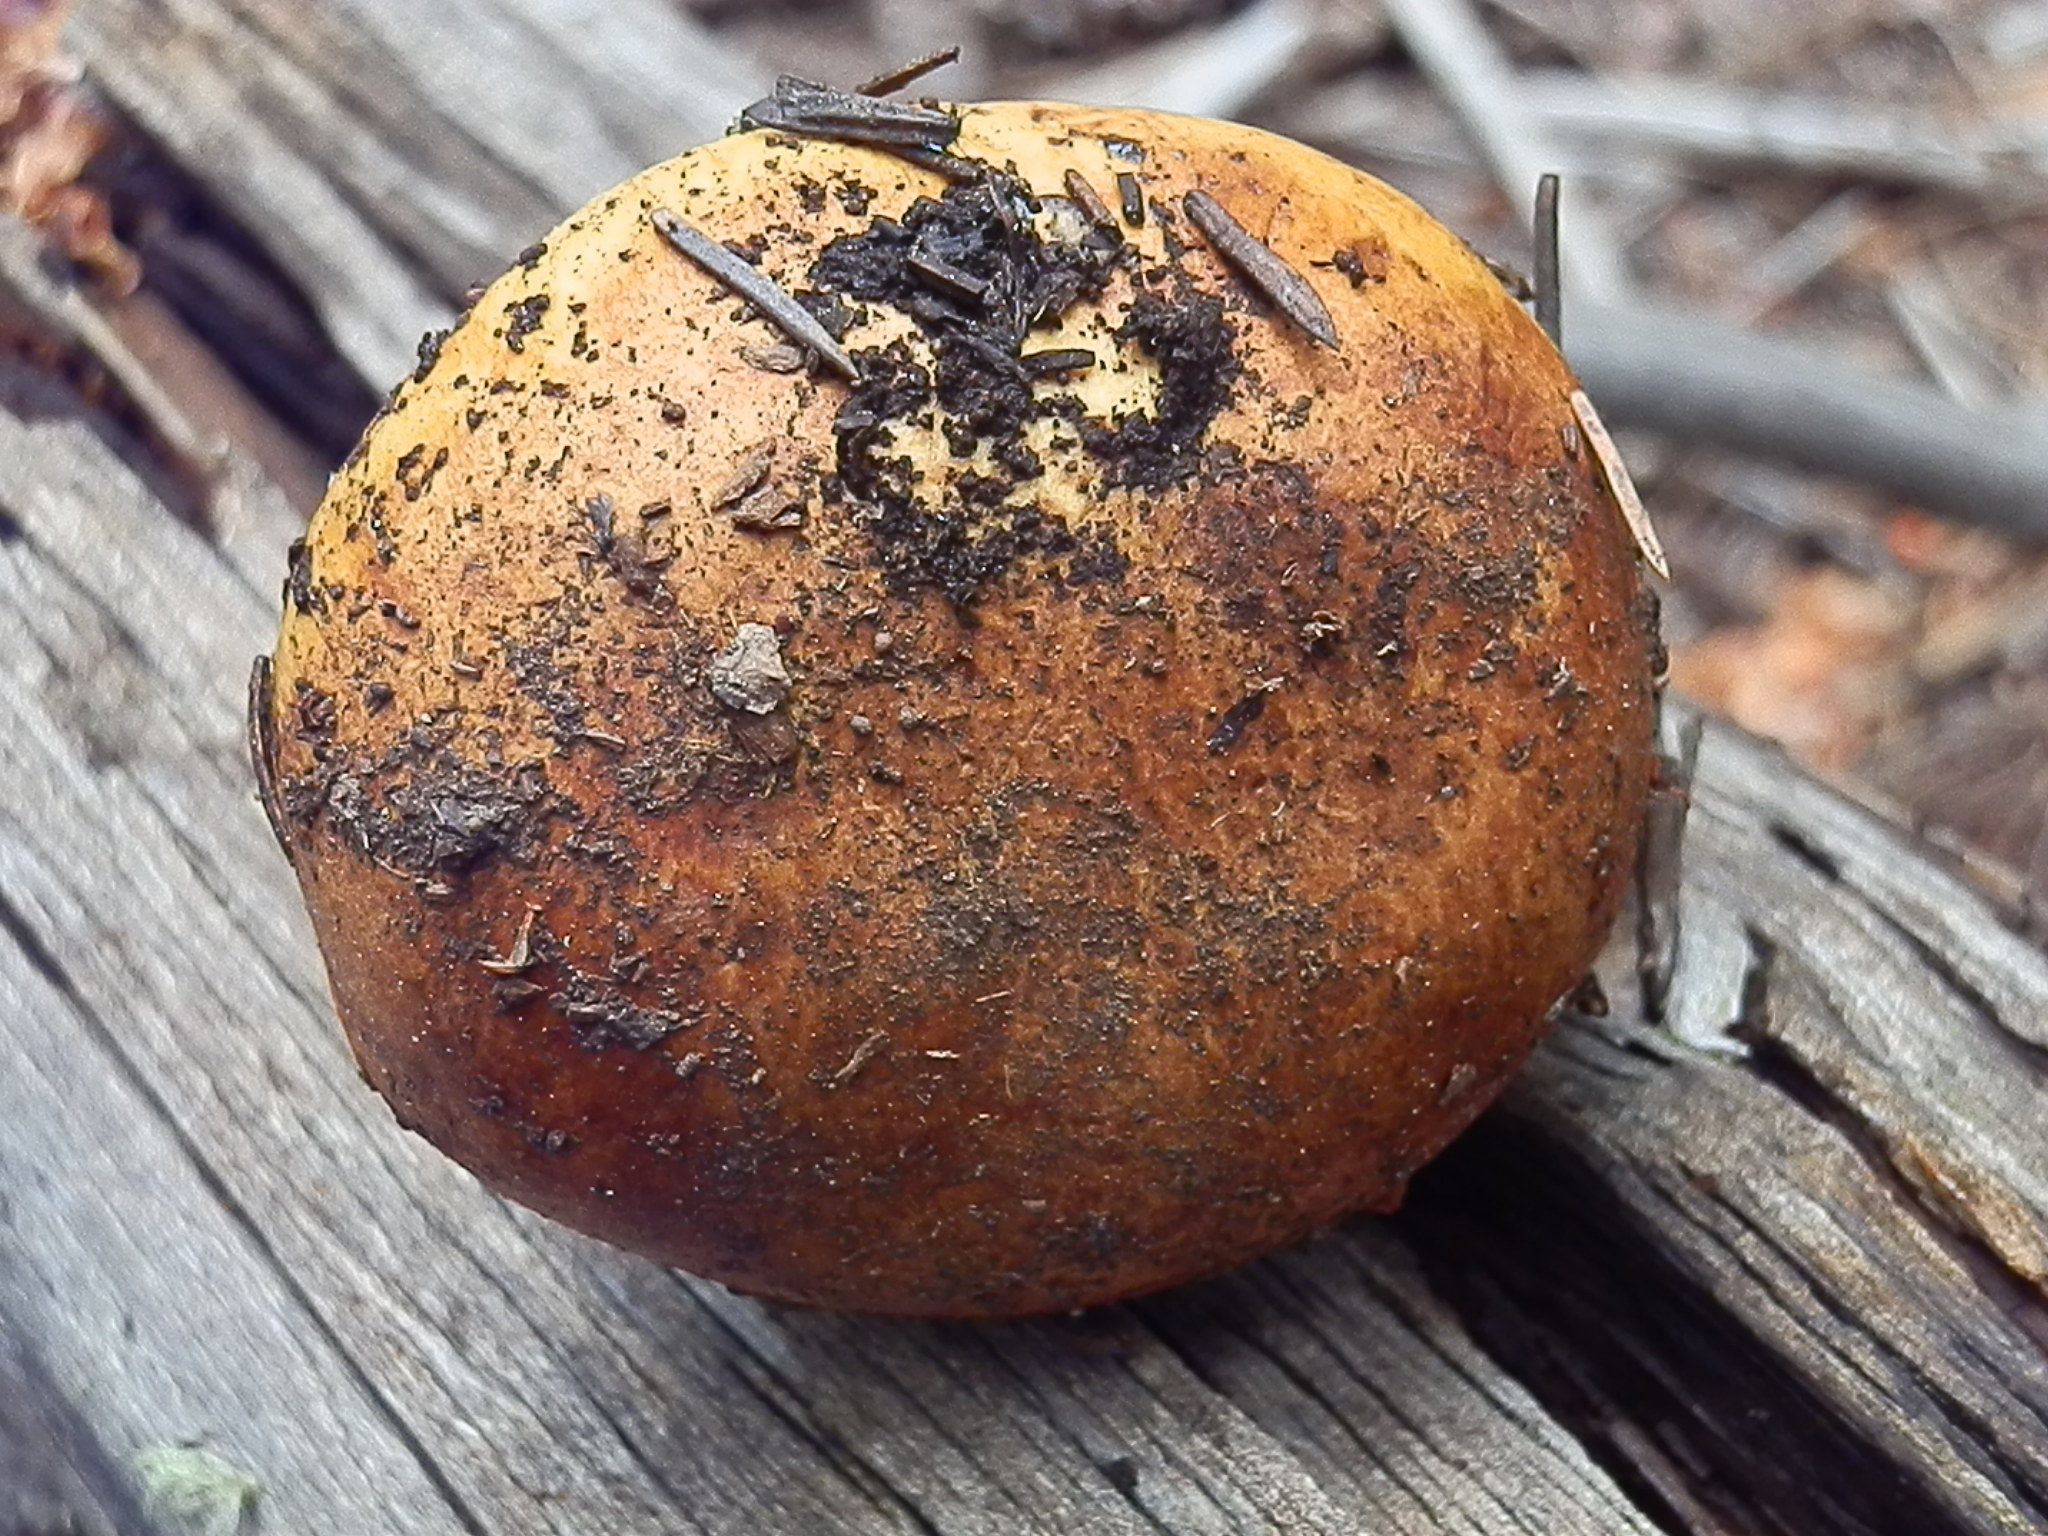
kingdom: Fungi
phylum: Basidiomycota
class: Agaricomycetes
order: Agaricales
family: Cortinariaceae
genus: Calonarius
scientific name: Calonarius
